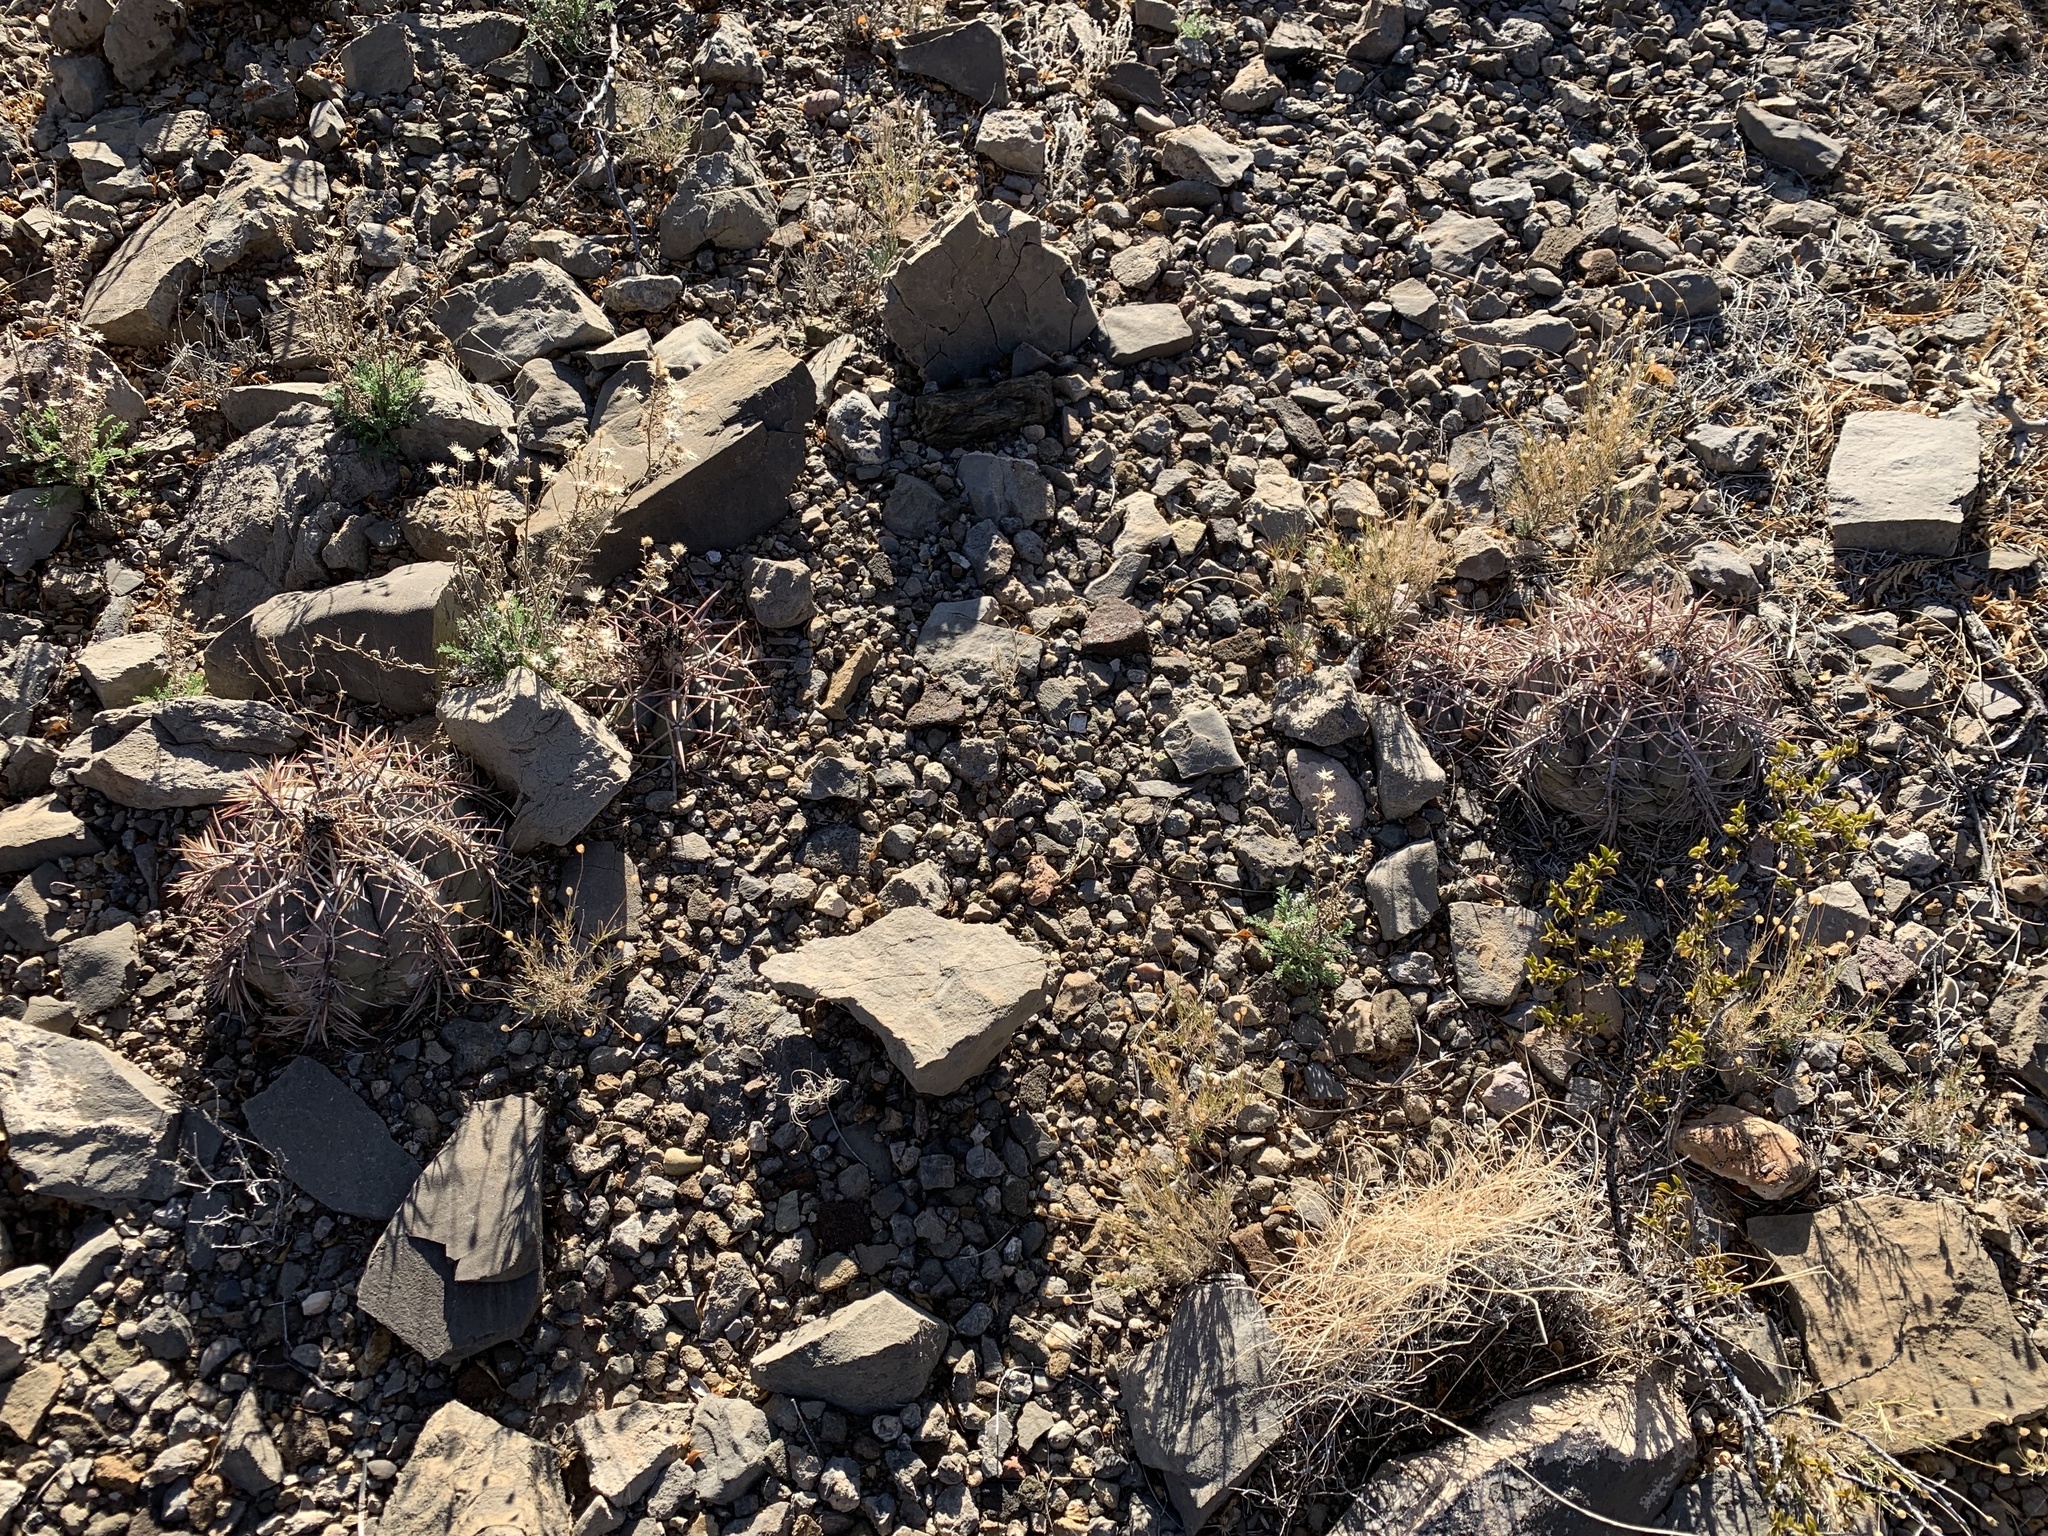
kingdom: Plantae
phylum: Tracheophyta
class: Magnoliopsida
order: Caryophyllales
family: Cactaceae
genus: Echinocactus
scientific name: Echinocactus horizonthalonius
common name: Devilshead
